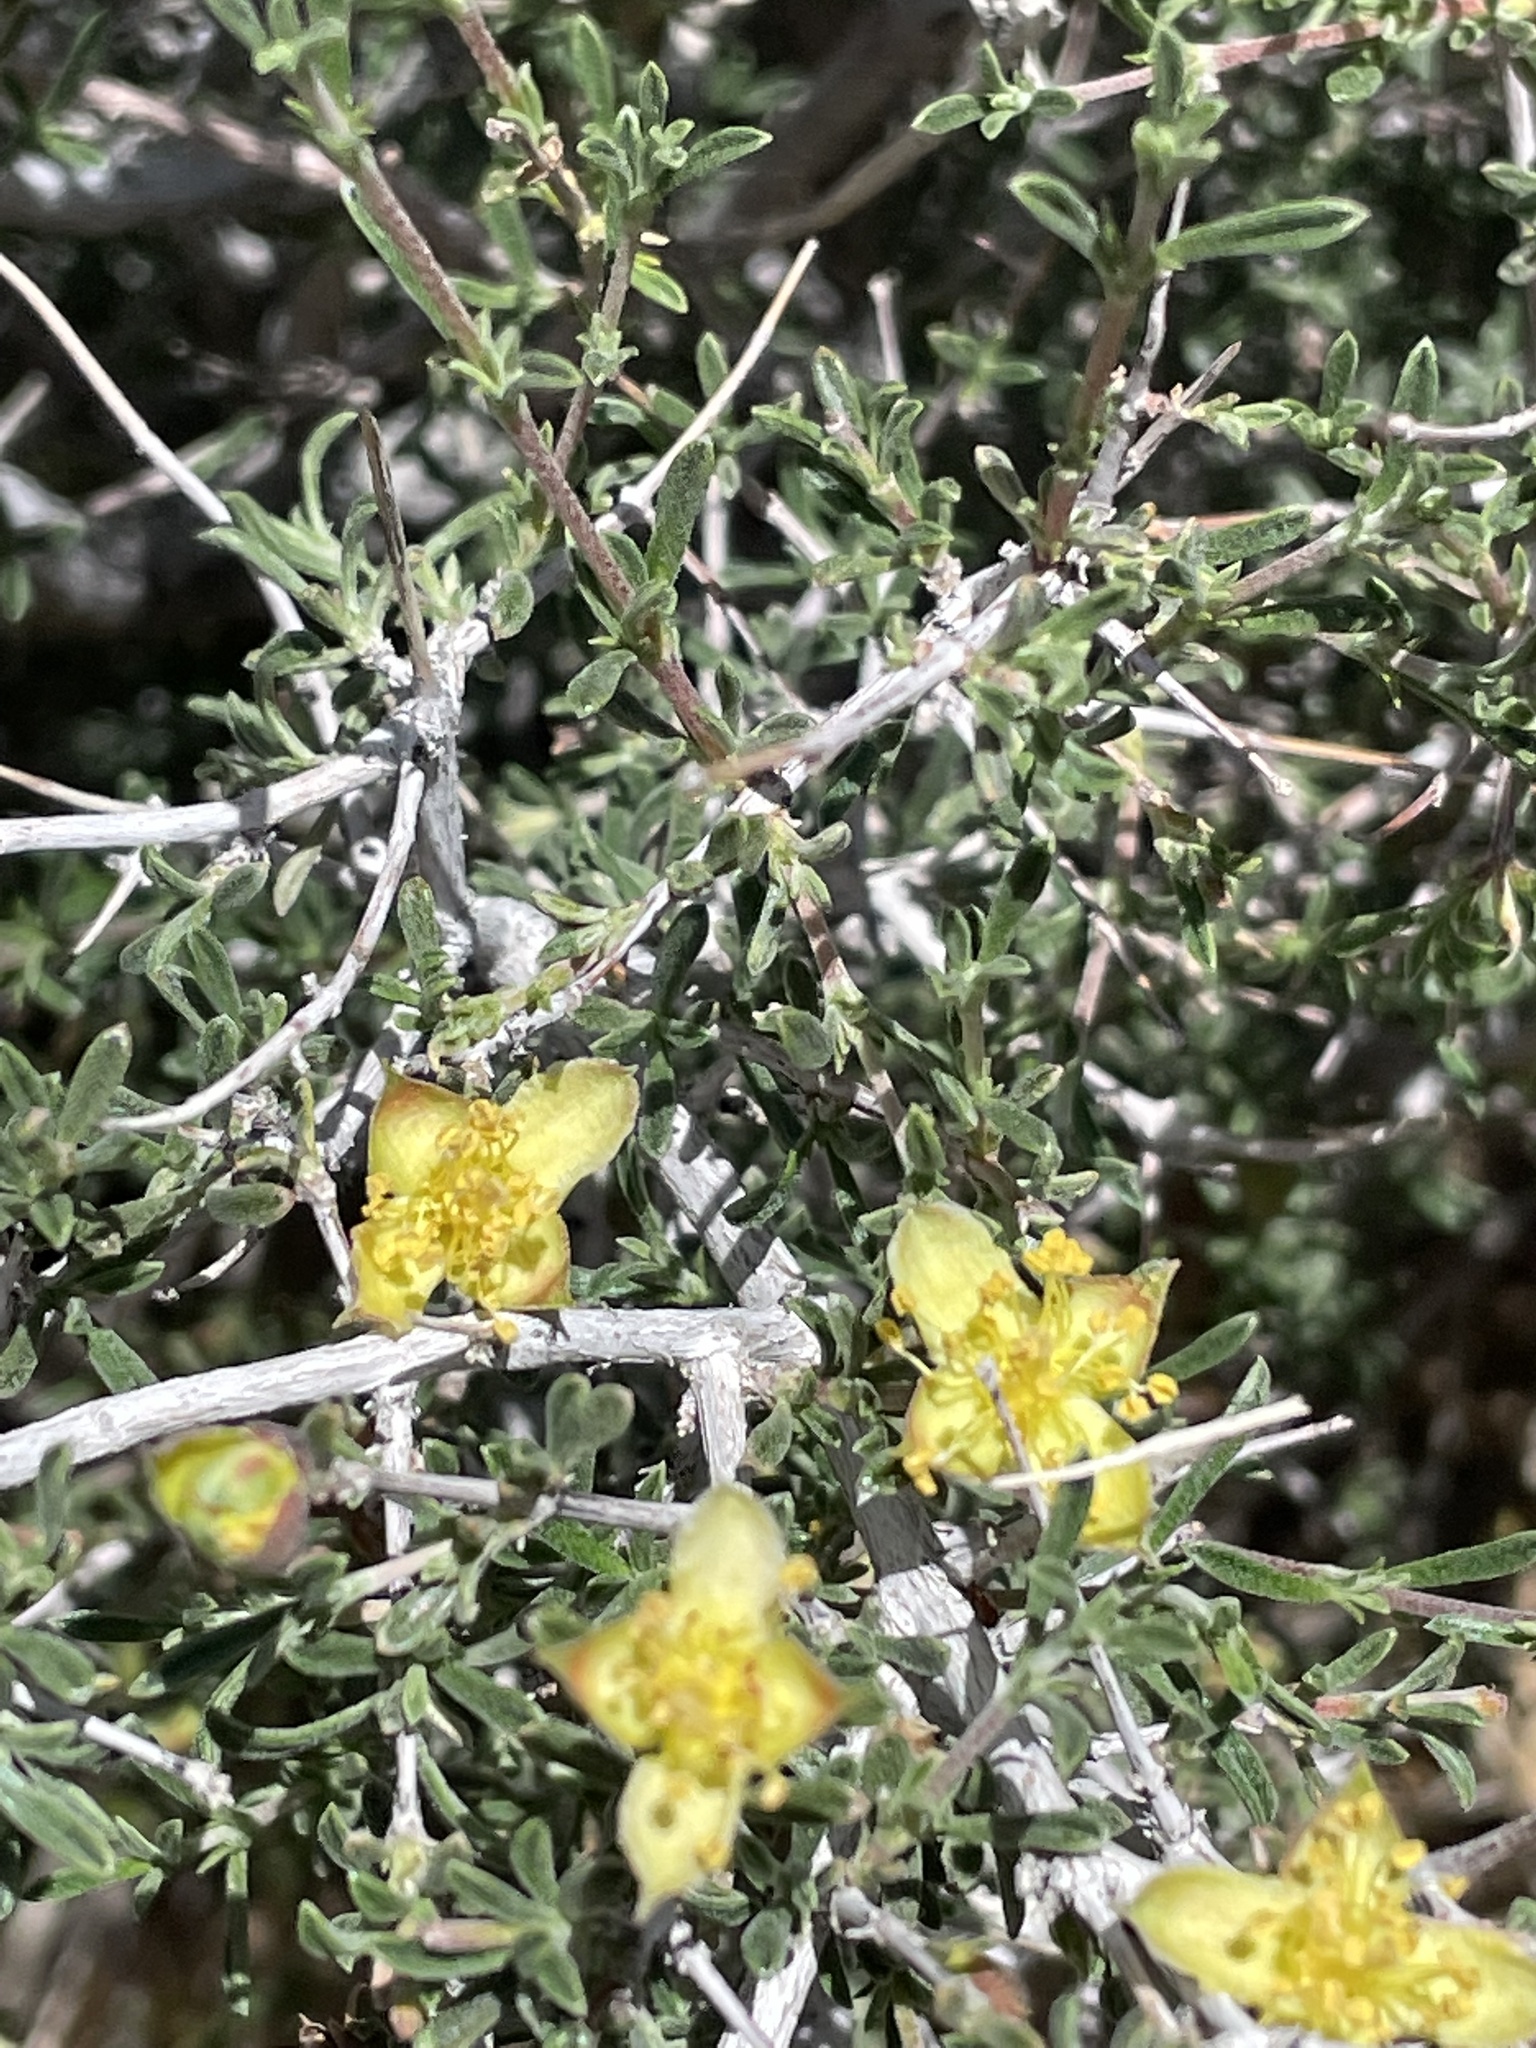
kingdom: Plantae
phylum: Tracheophyta
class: Magnoliopsida
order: Rosales
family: Rosaceae
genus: Coleogyne
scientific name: Coleogyne ramosissima
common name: Blackbrush
